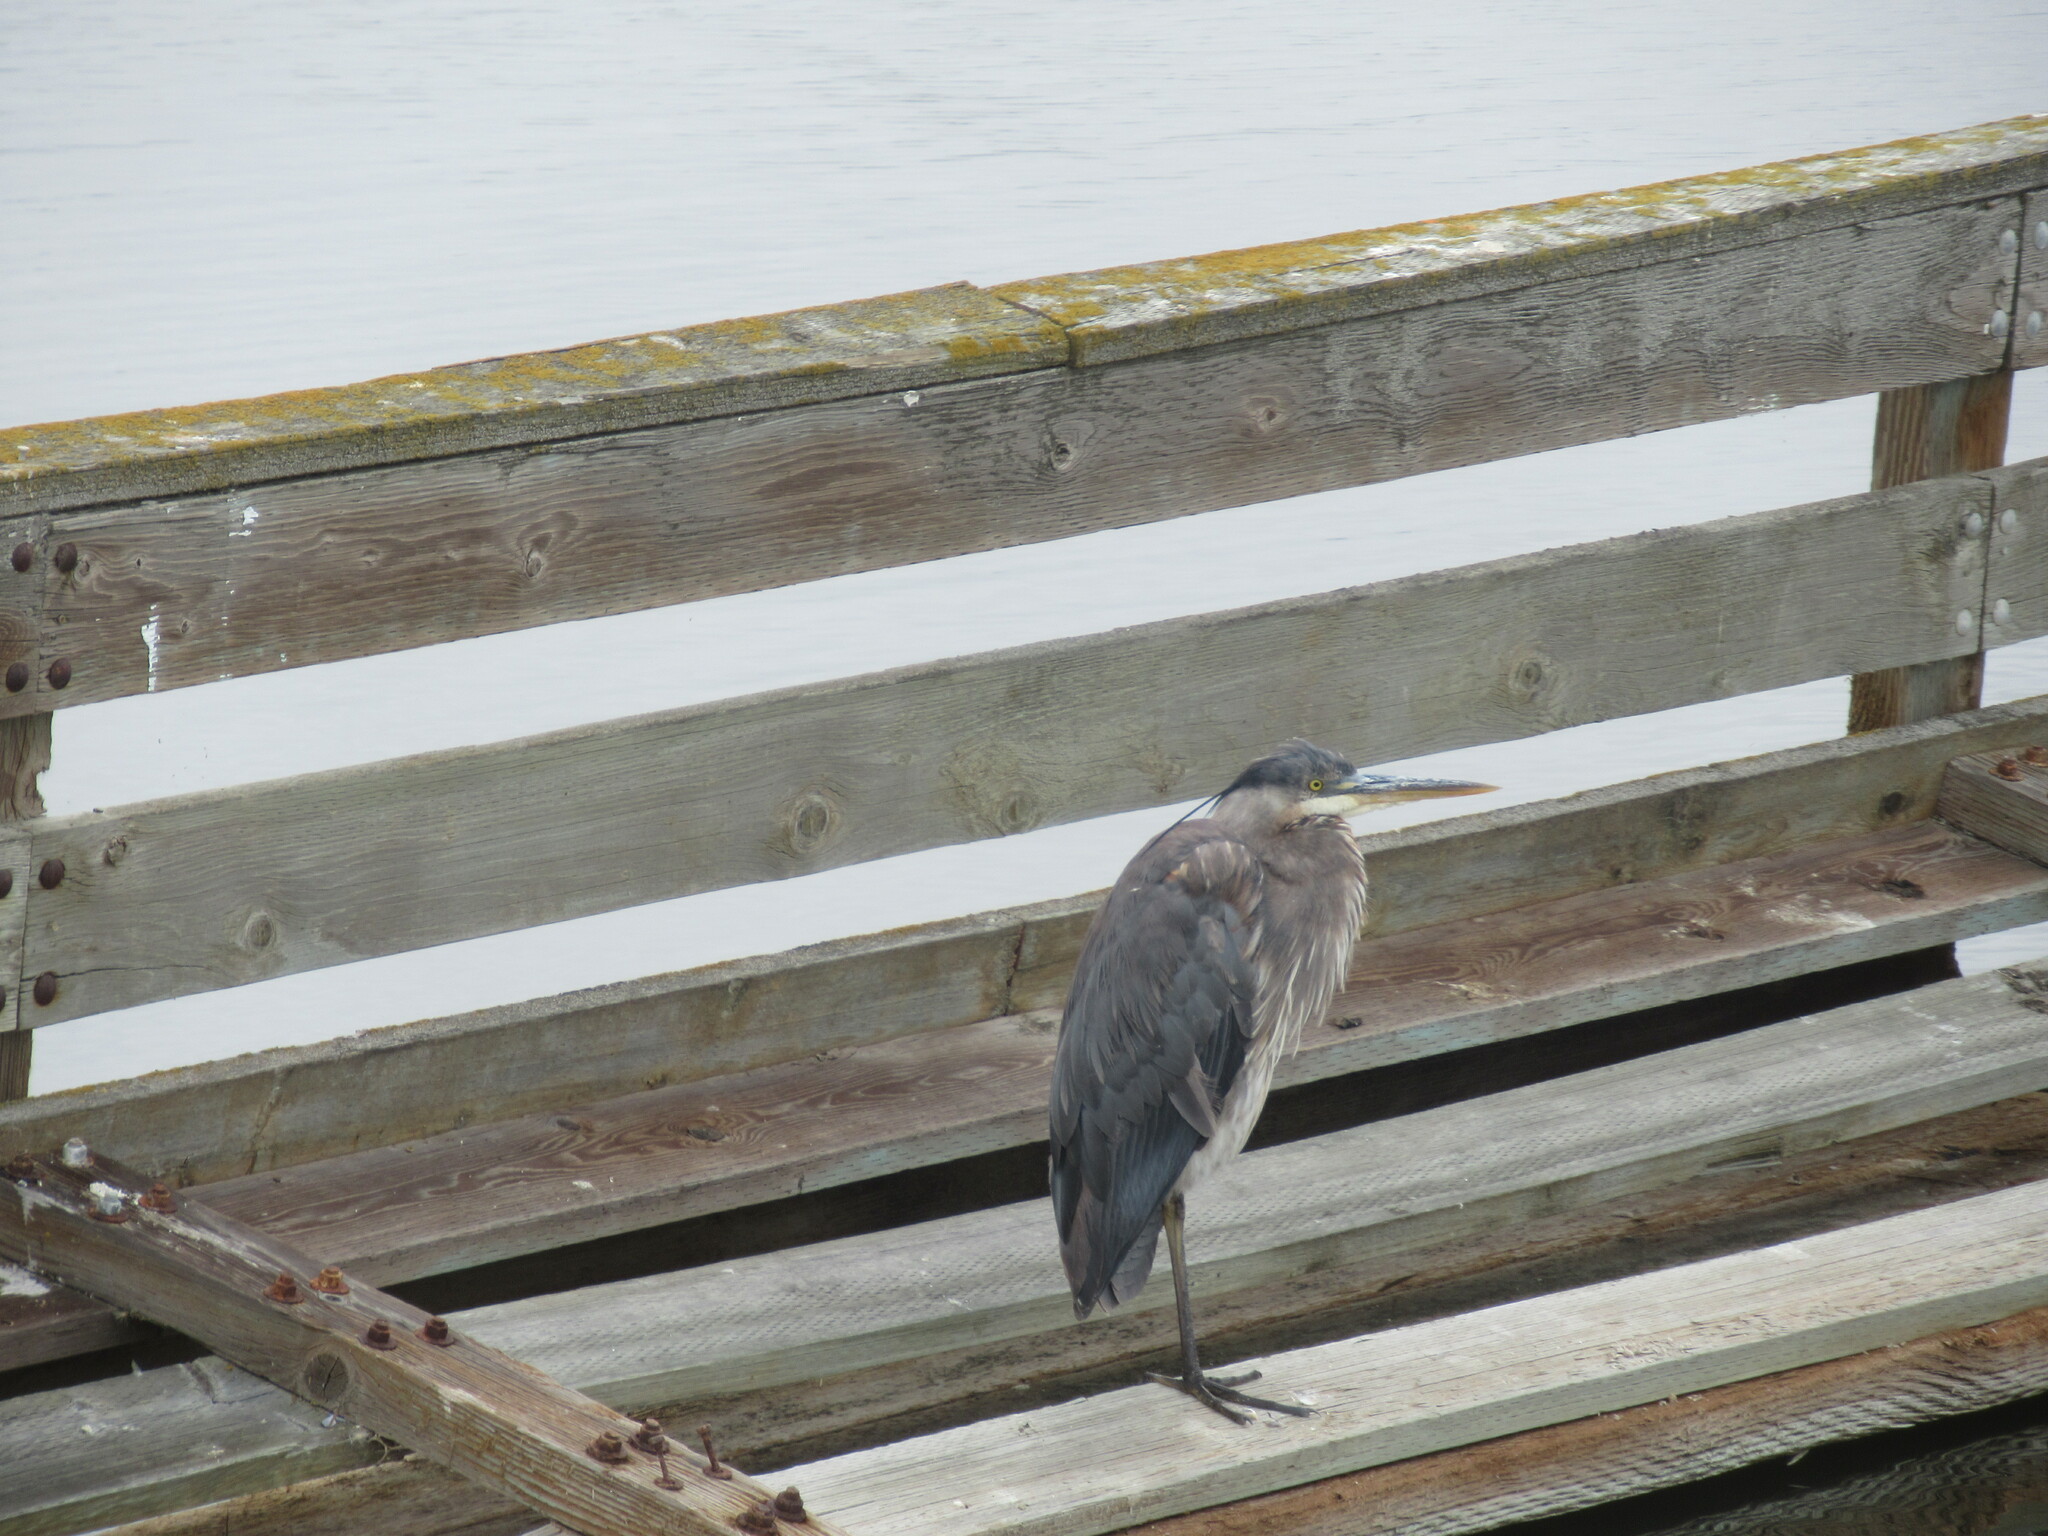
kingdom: Animalia
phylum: Chordata
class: Aves
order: Pelecaniformes
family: Ardeidae
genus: Ardea
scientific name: Ardea herodias
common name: Great blue heron
